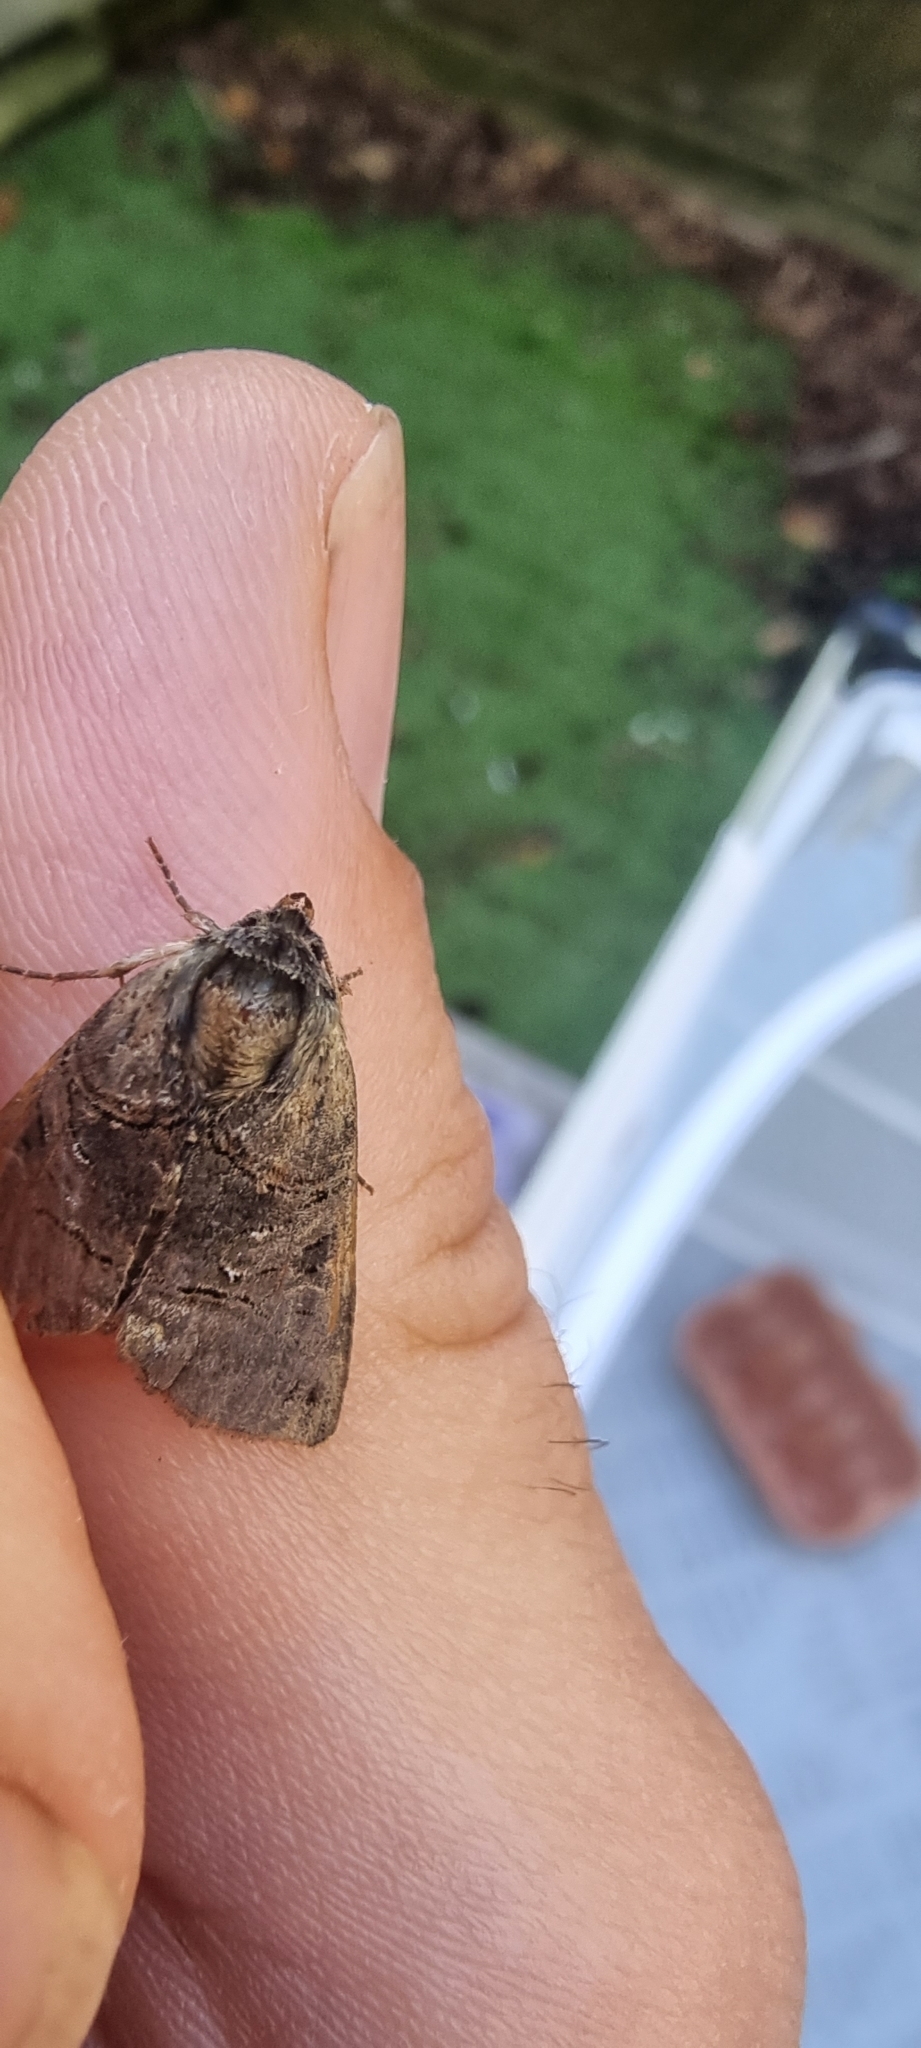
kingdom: Animalia
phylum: Arthropoda
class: Insecta
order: Lepidoptera
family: Noctuidae
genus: Abrostola
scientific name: Abrostola tripartita
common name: Spectacle
